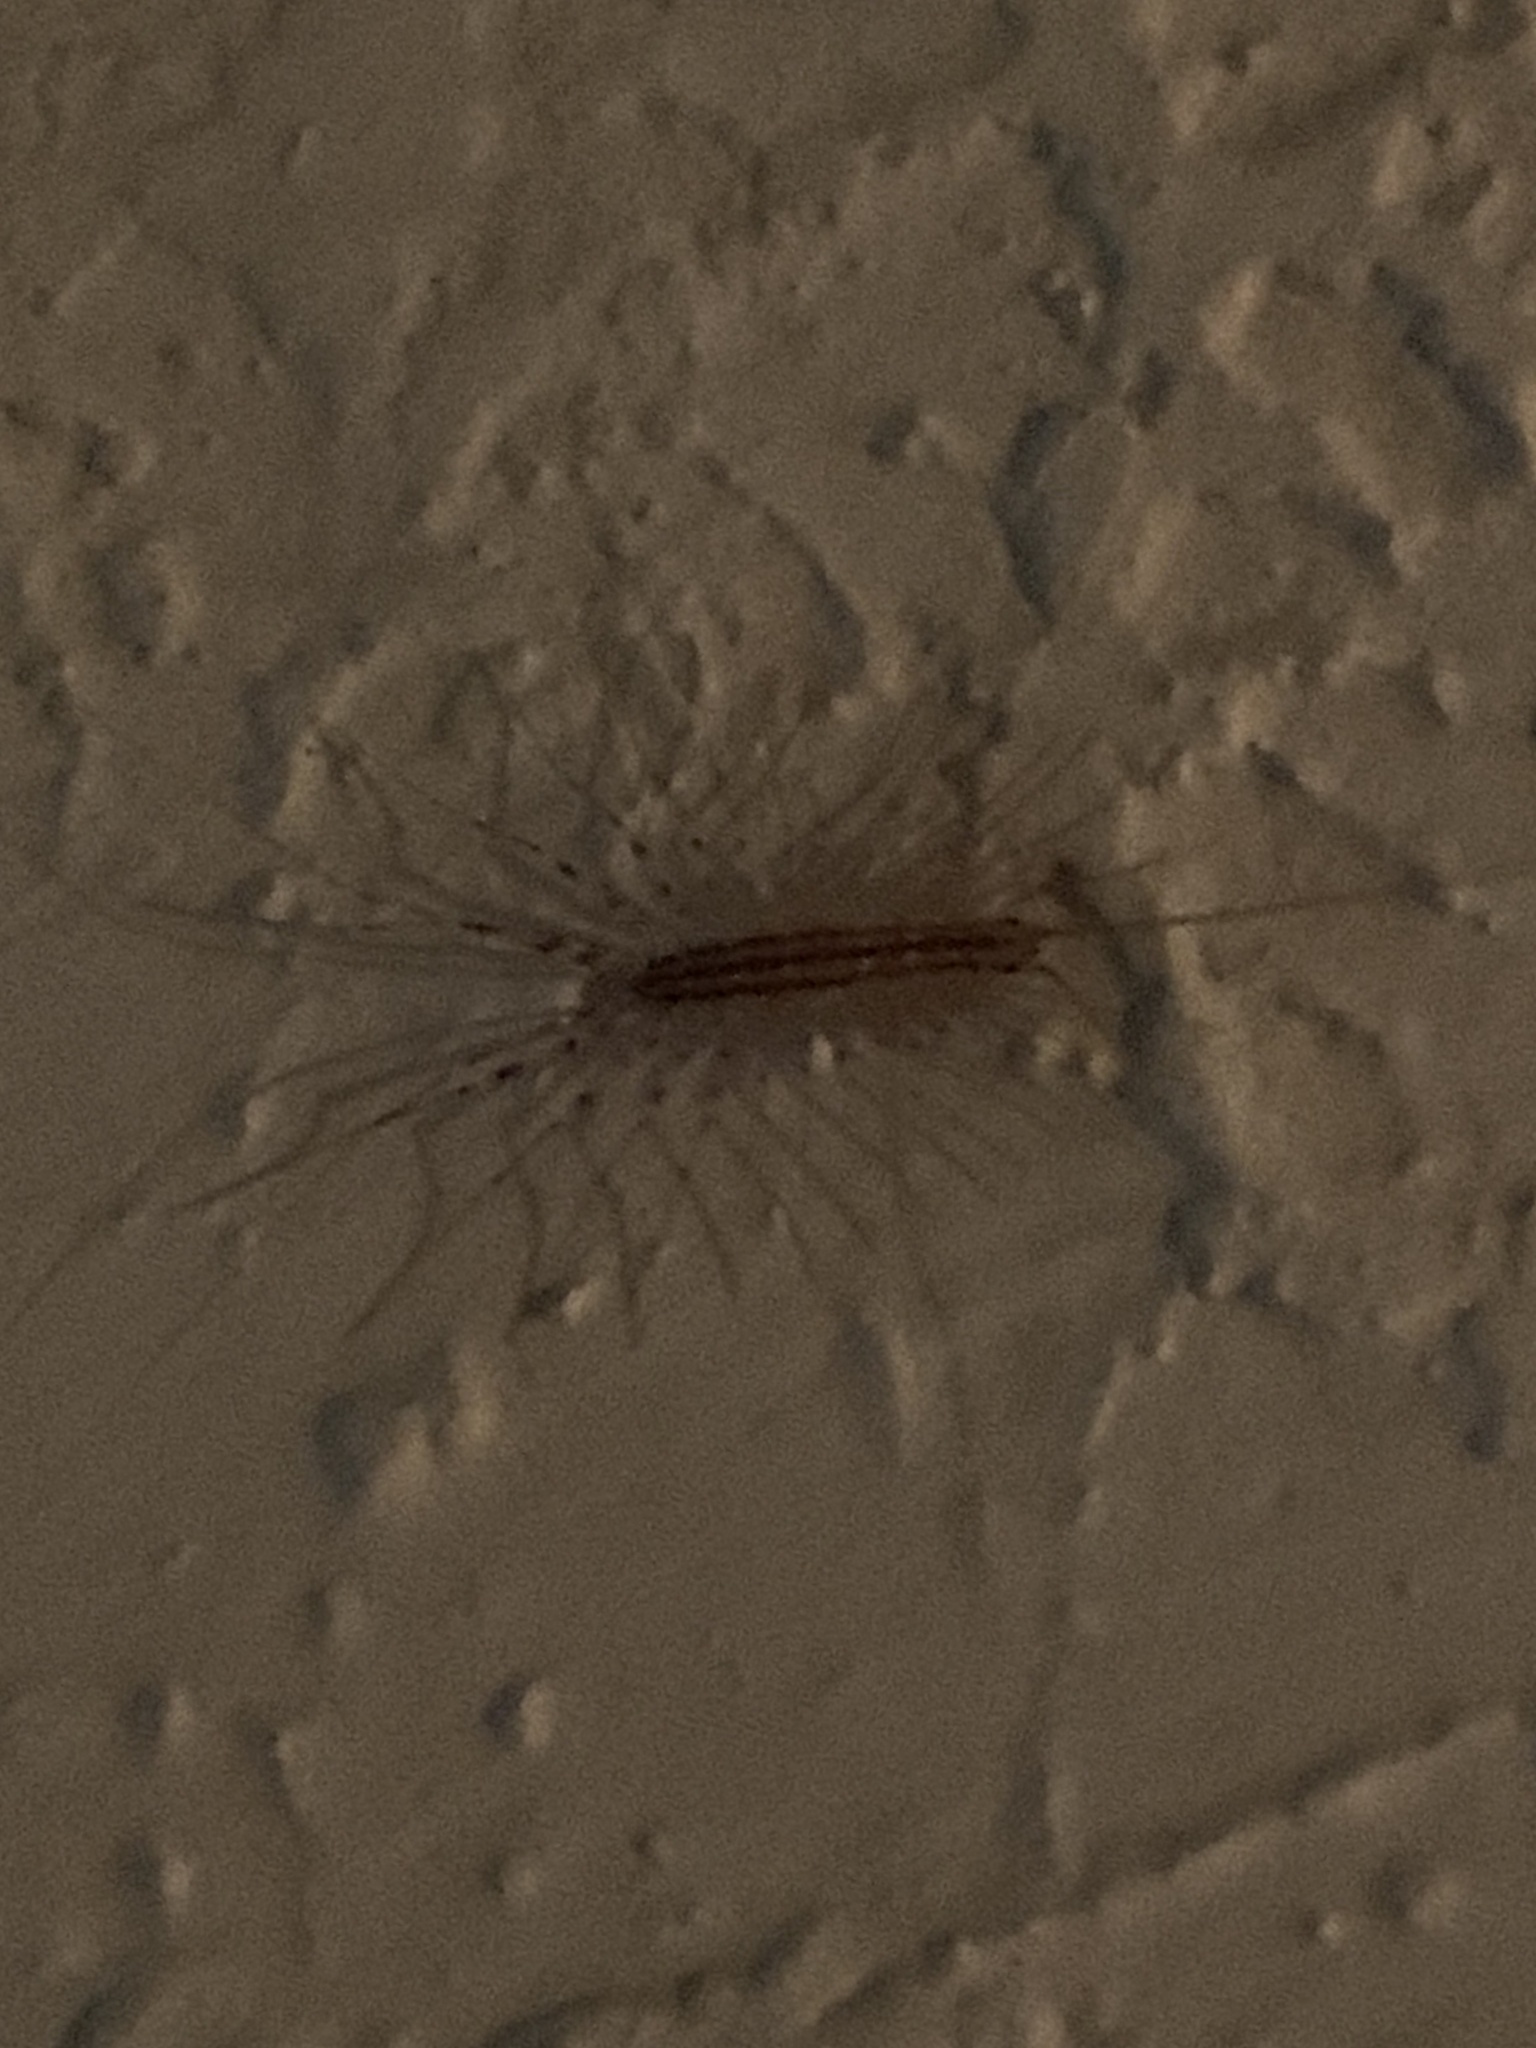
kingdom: Animalia
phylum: Arthropoda
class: Chilopoda
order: Scutigeromorpha
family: Scutigeridae
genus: Scutigera
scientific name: Scutigera coleoptrata
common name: House centipede
